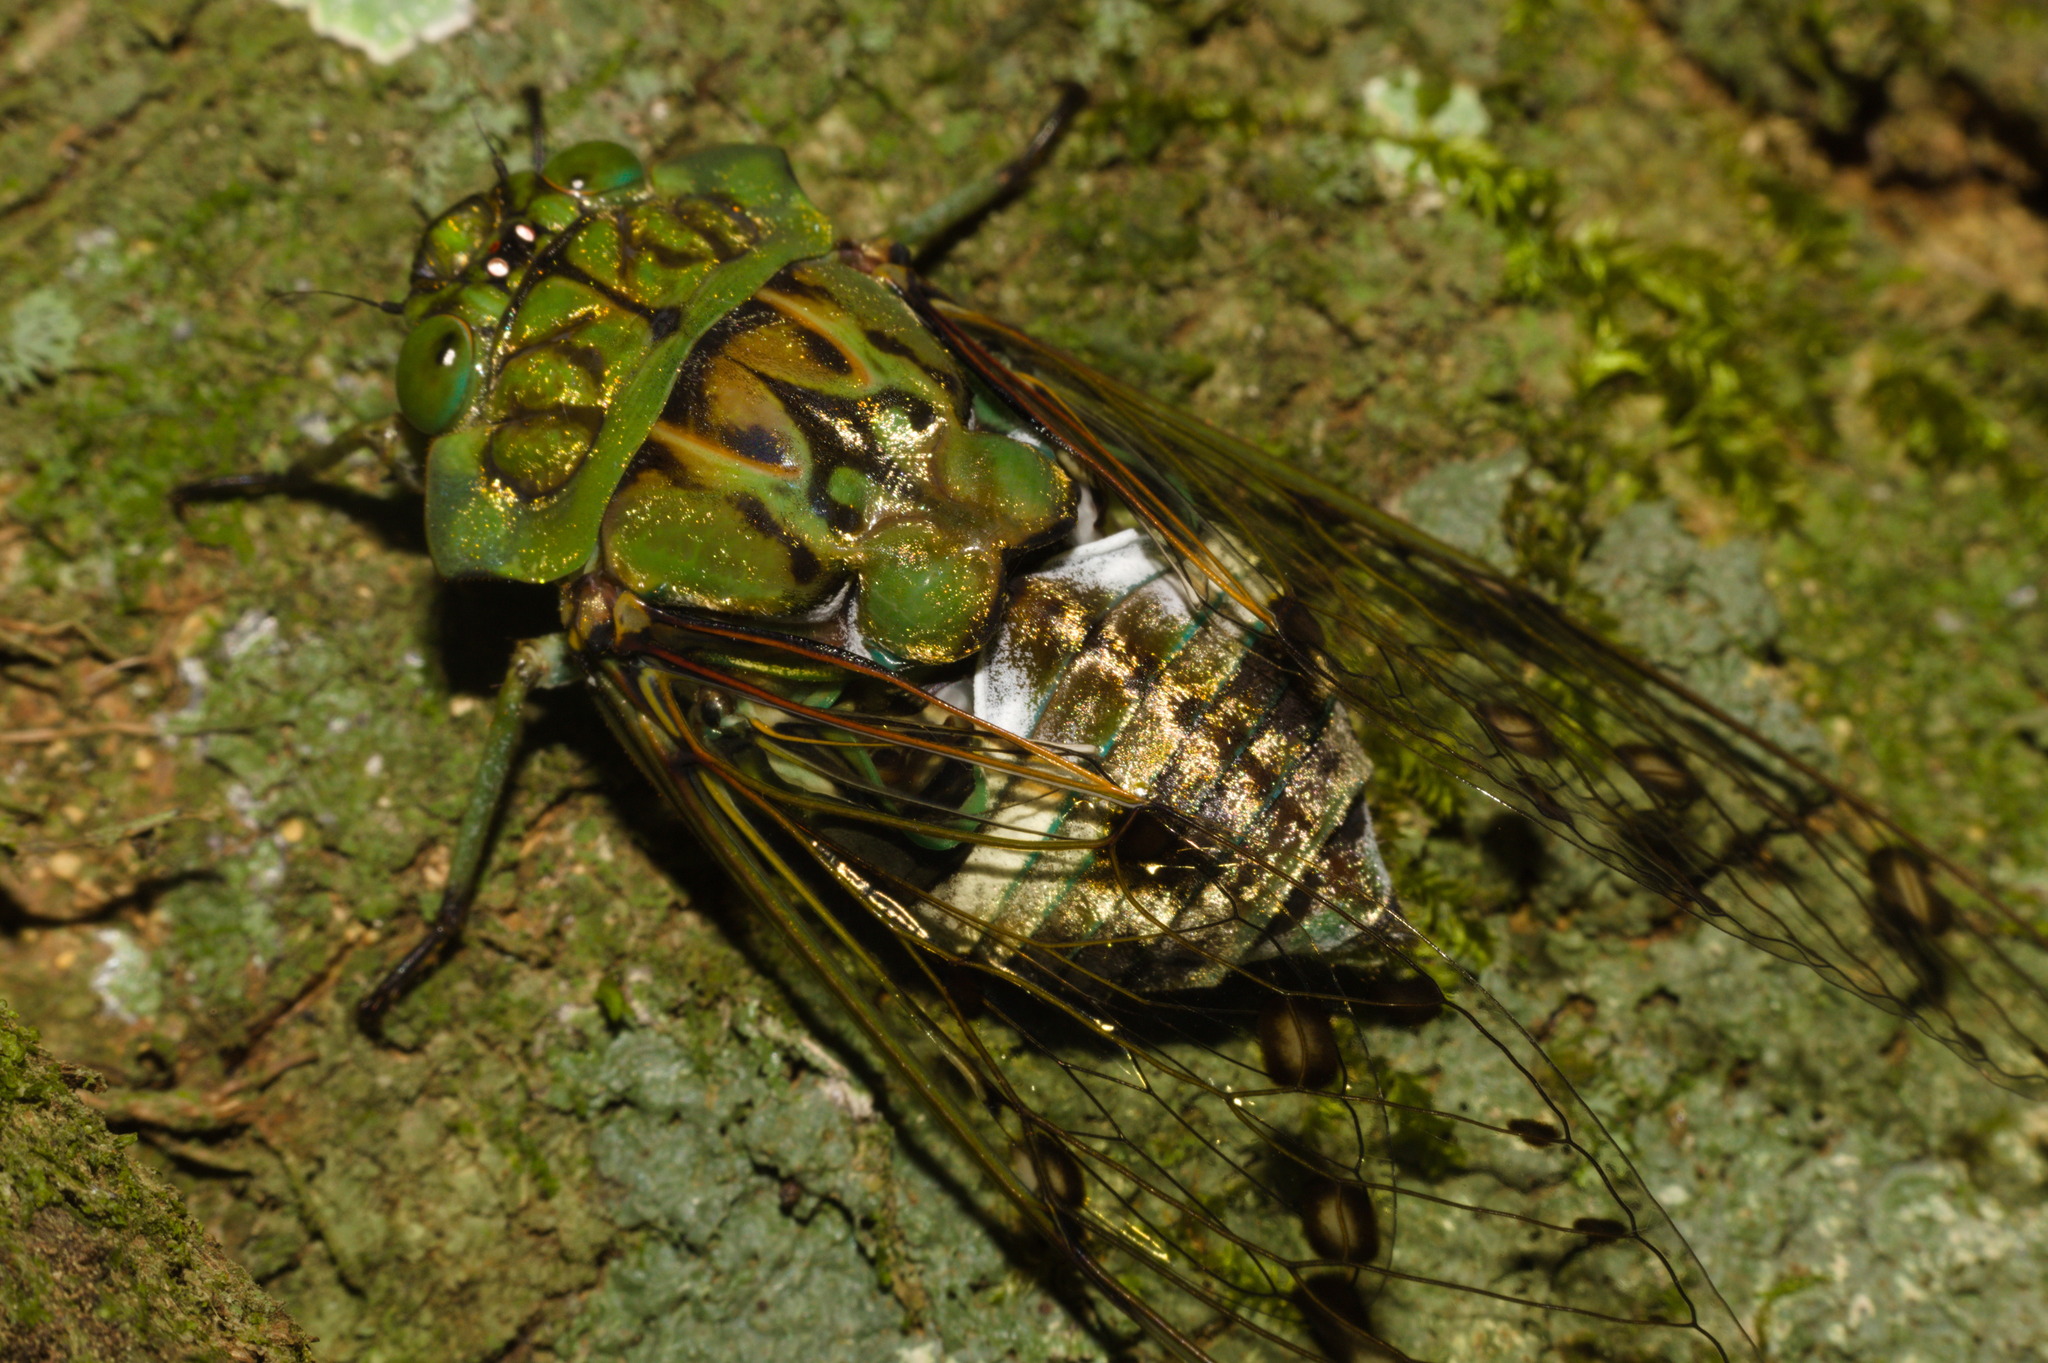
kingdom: Animalia
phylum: Arthropoda
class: Insecta
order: Hemiptera
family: Cicadidae
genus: Zammara
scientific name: Zammara tympanum
